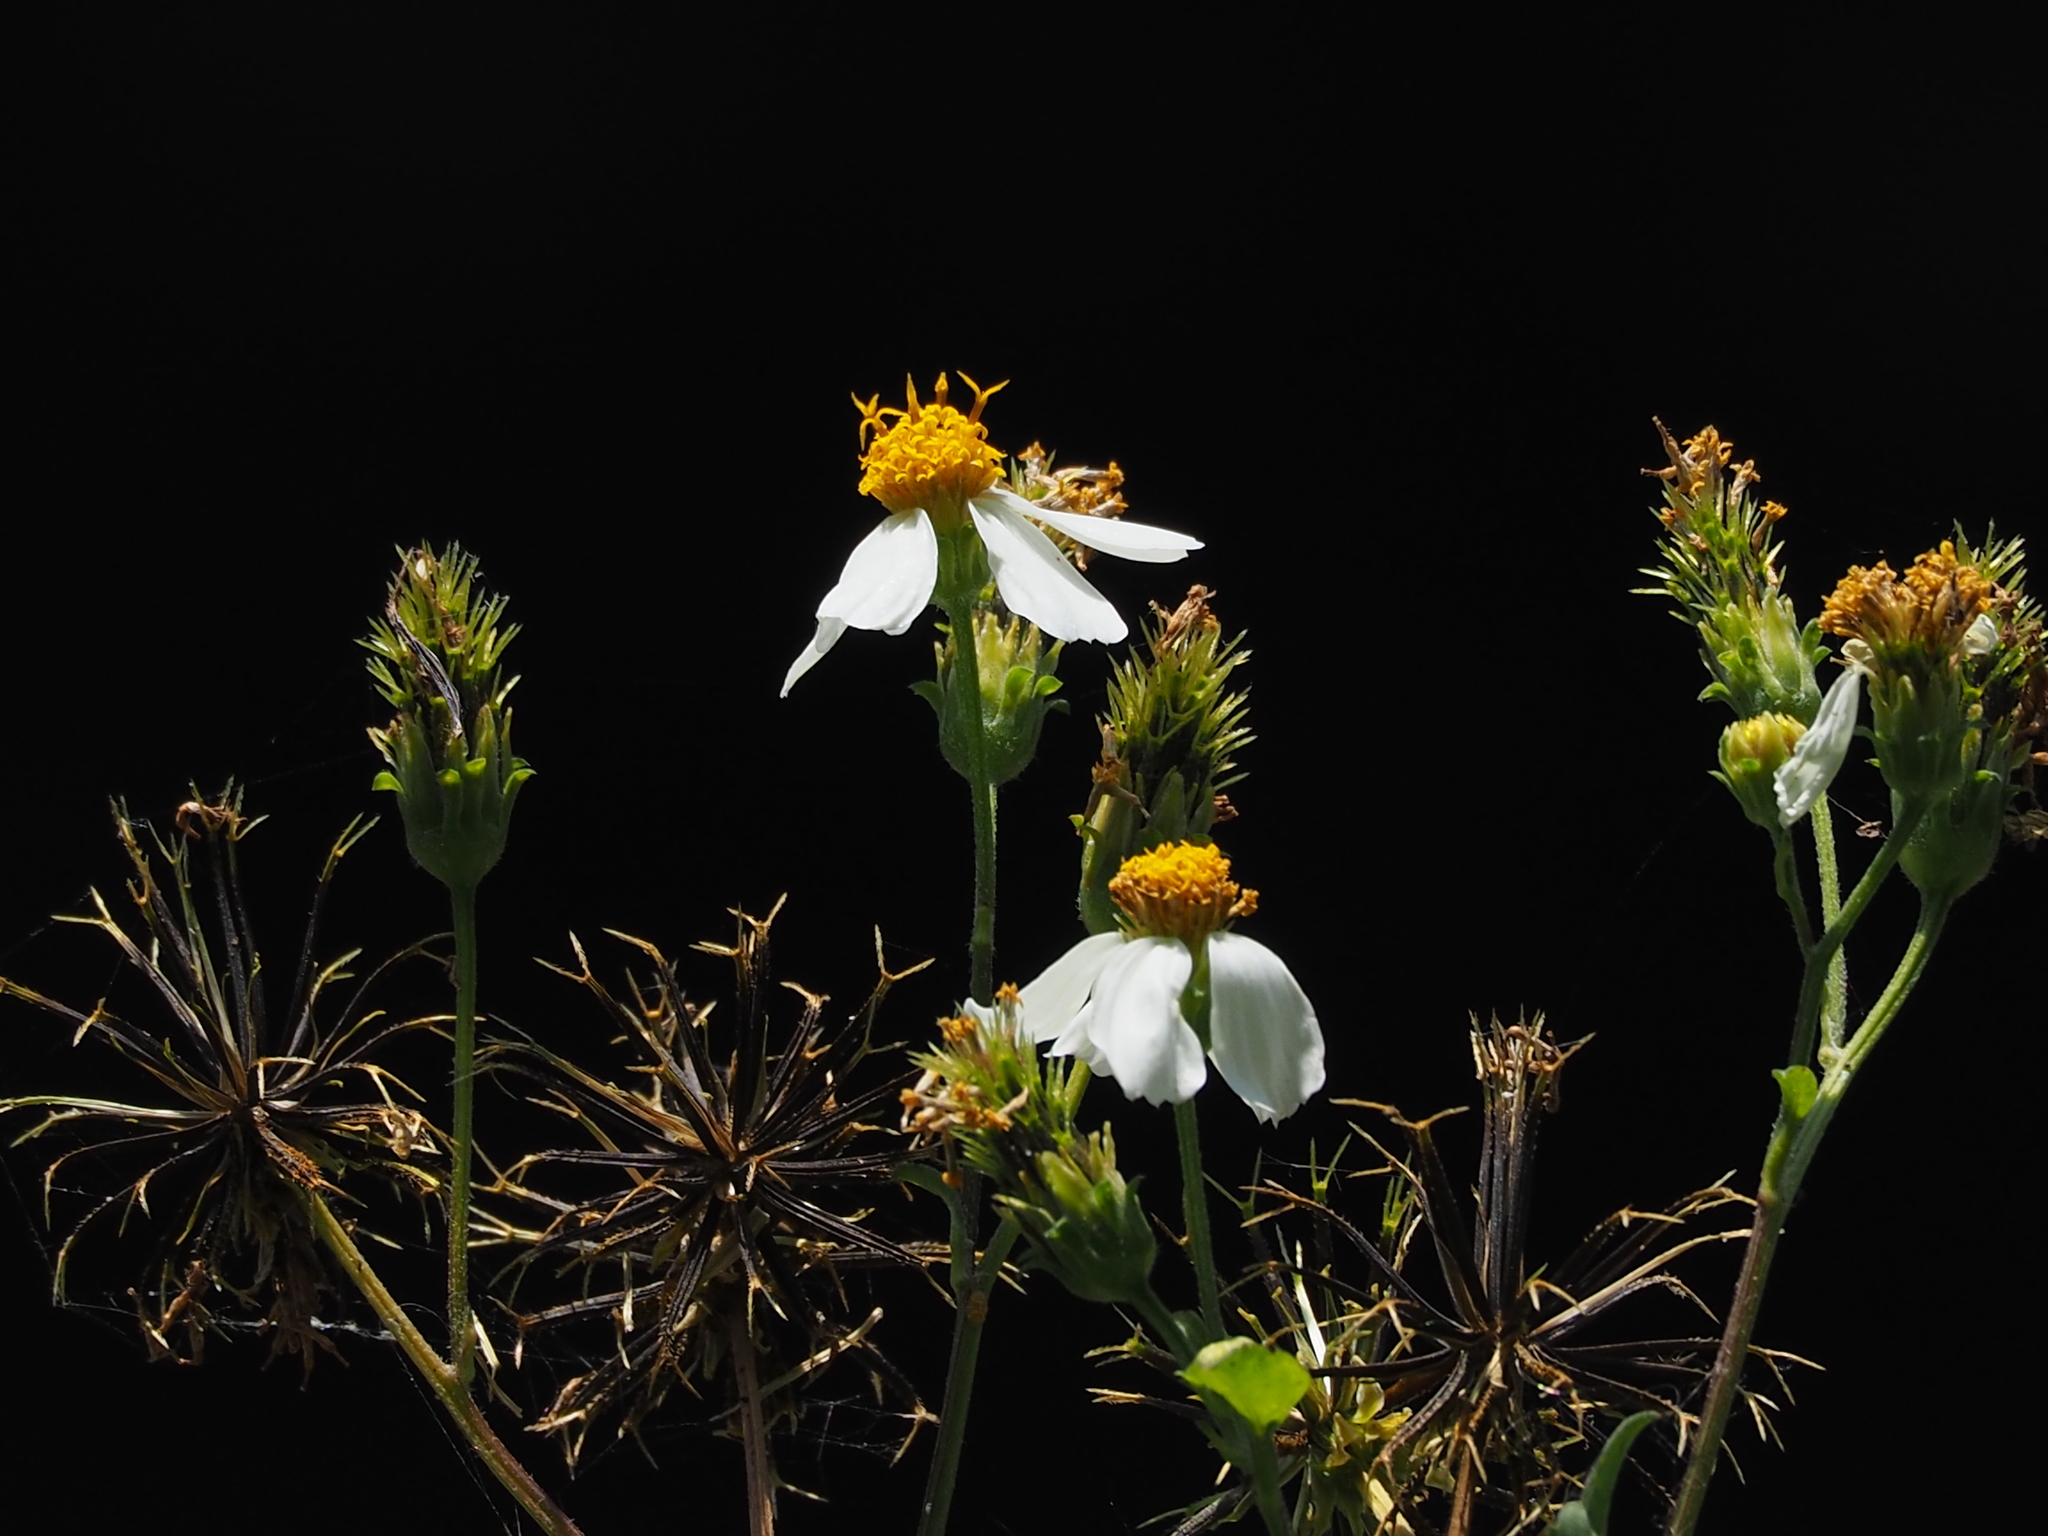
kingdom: Plantae
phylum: Tracheophyta
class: Magnoliopsida
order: Asterales
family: Asteraceae
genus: Bidens
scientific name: Bidens alba
